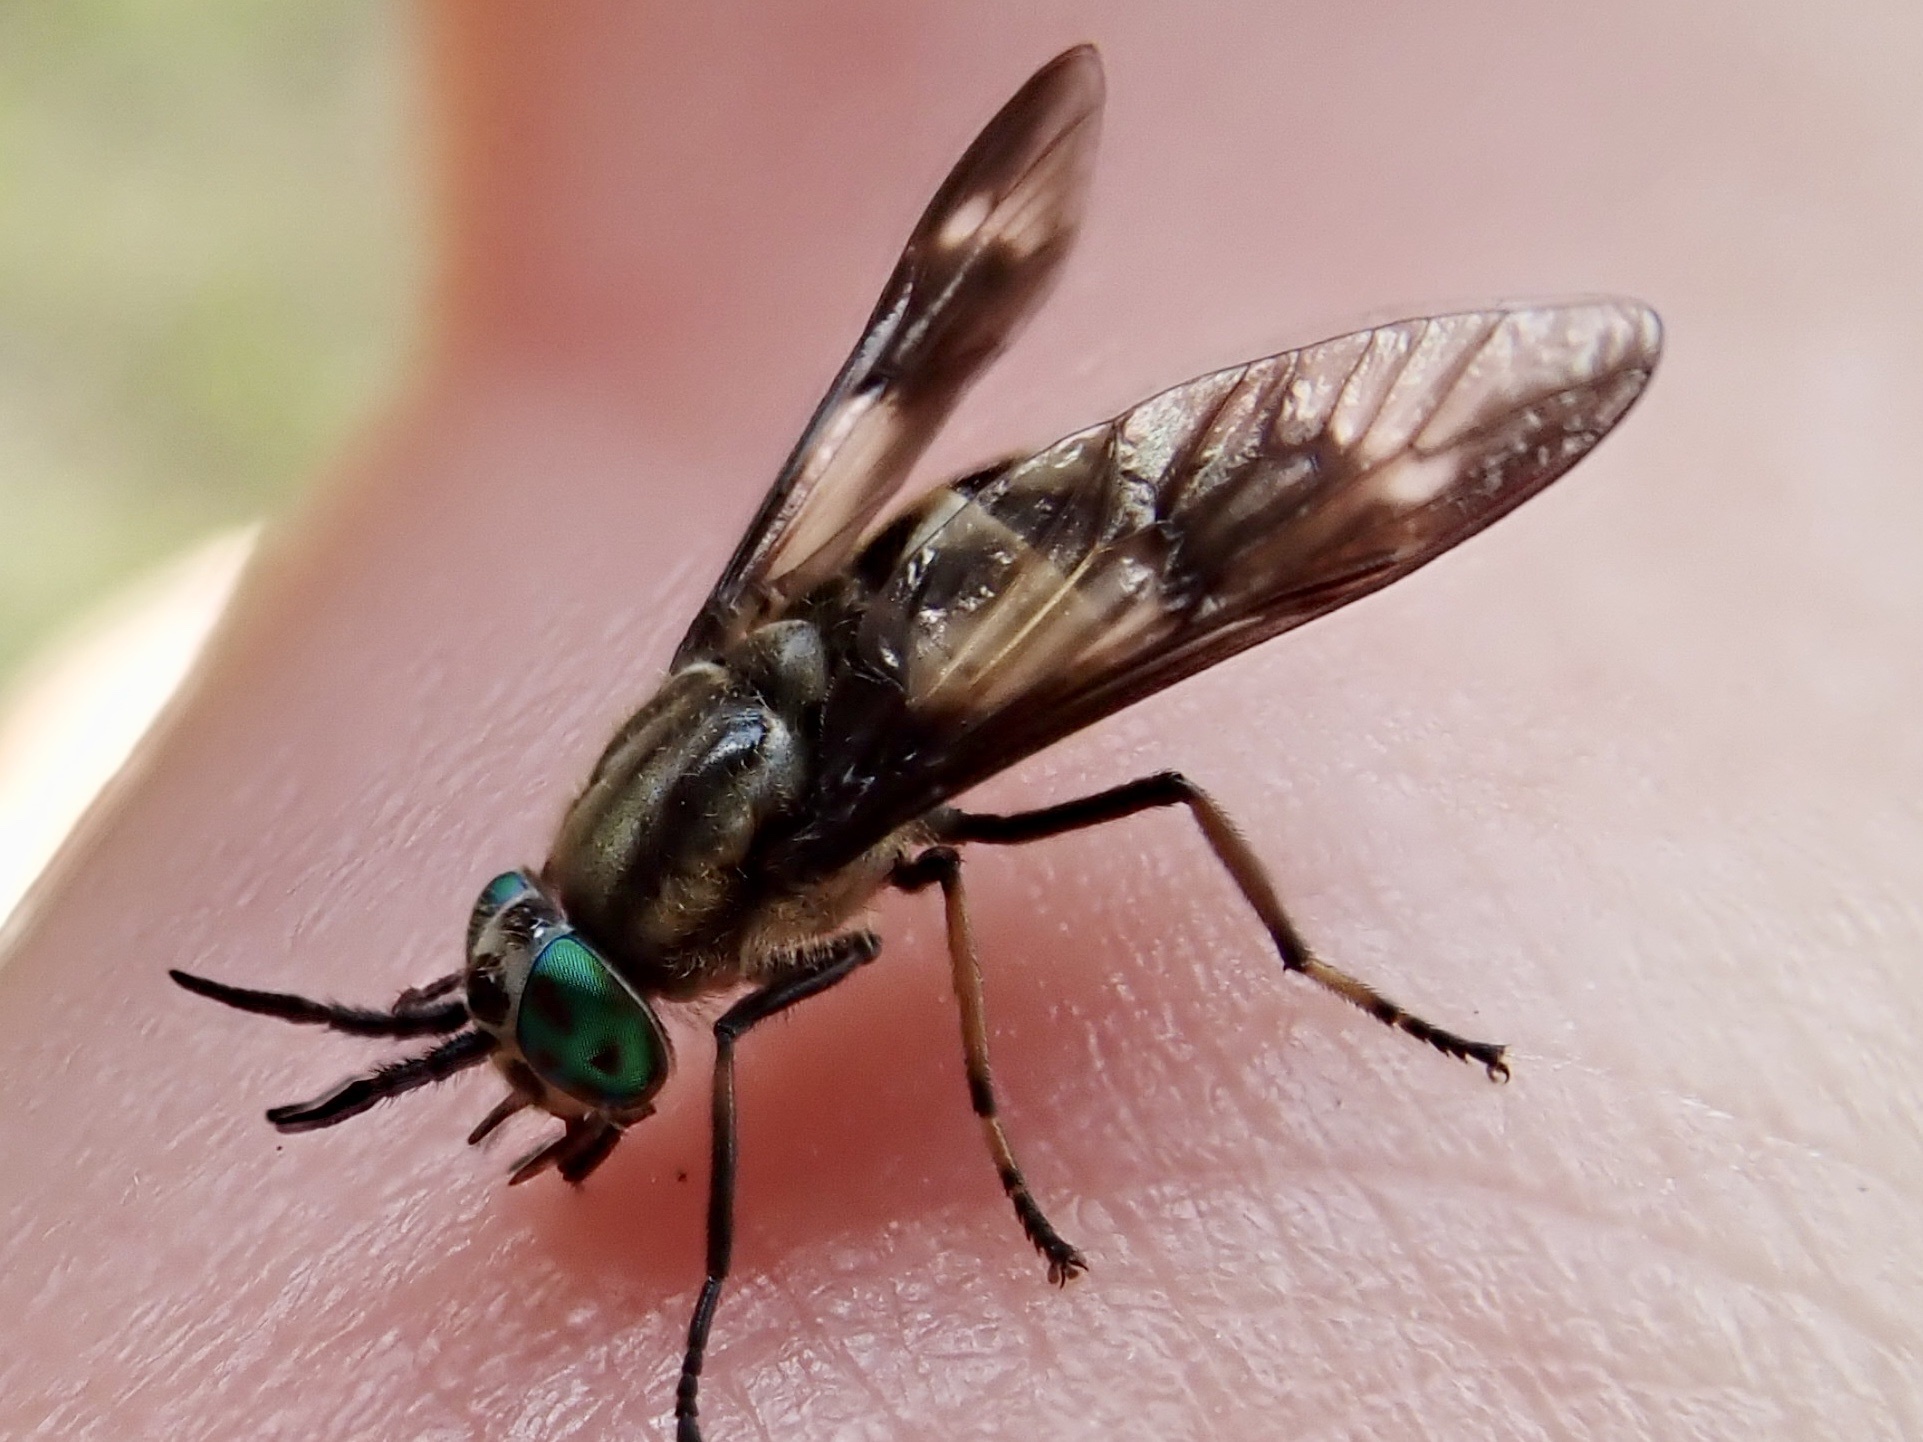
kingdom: Animalia
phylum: Arthropoda
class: Insecta
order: Diptera
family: Tabanidae
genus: Chrysops
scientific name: Chrysops relictus
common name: Twin-lobed deerfly
